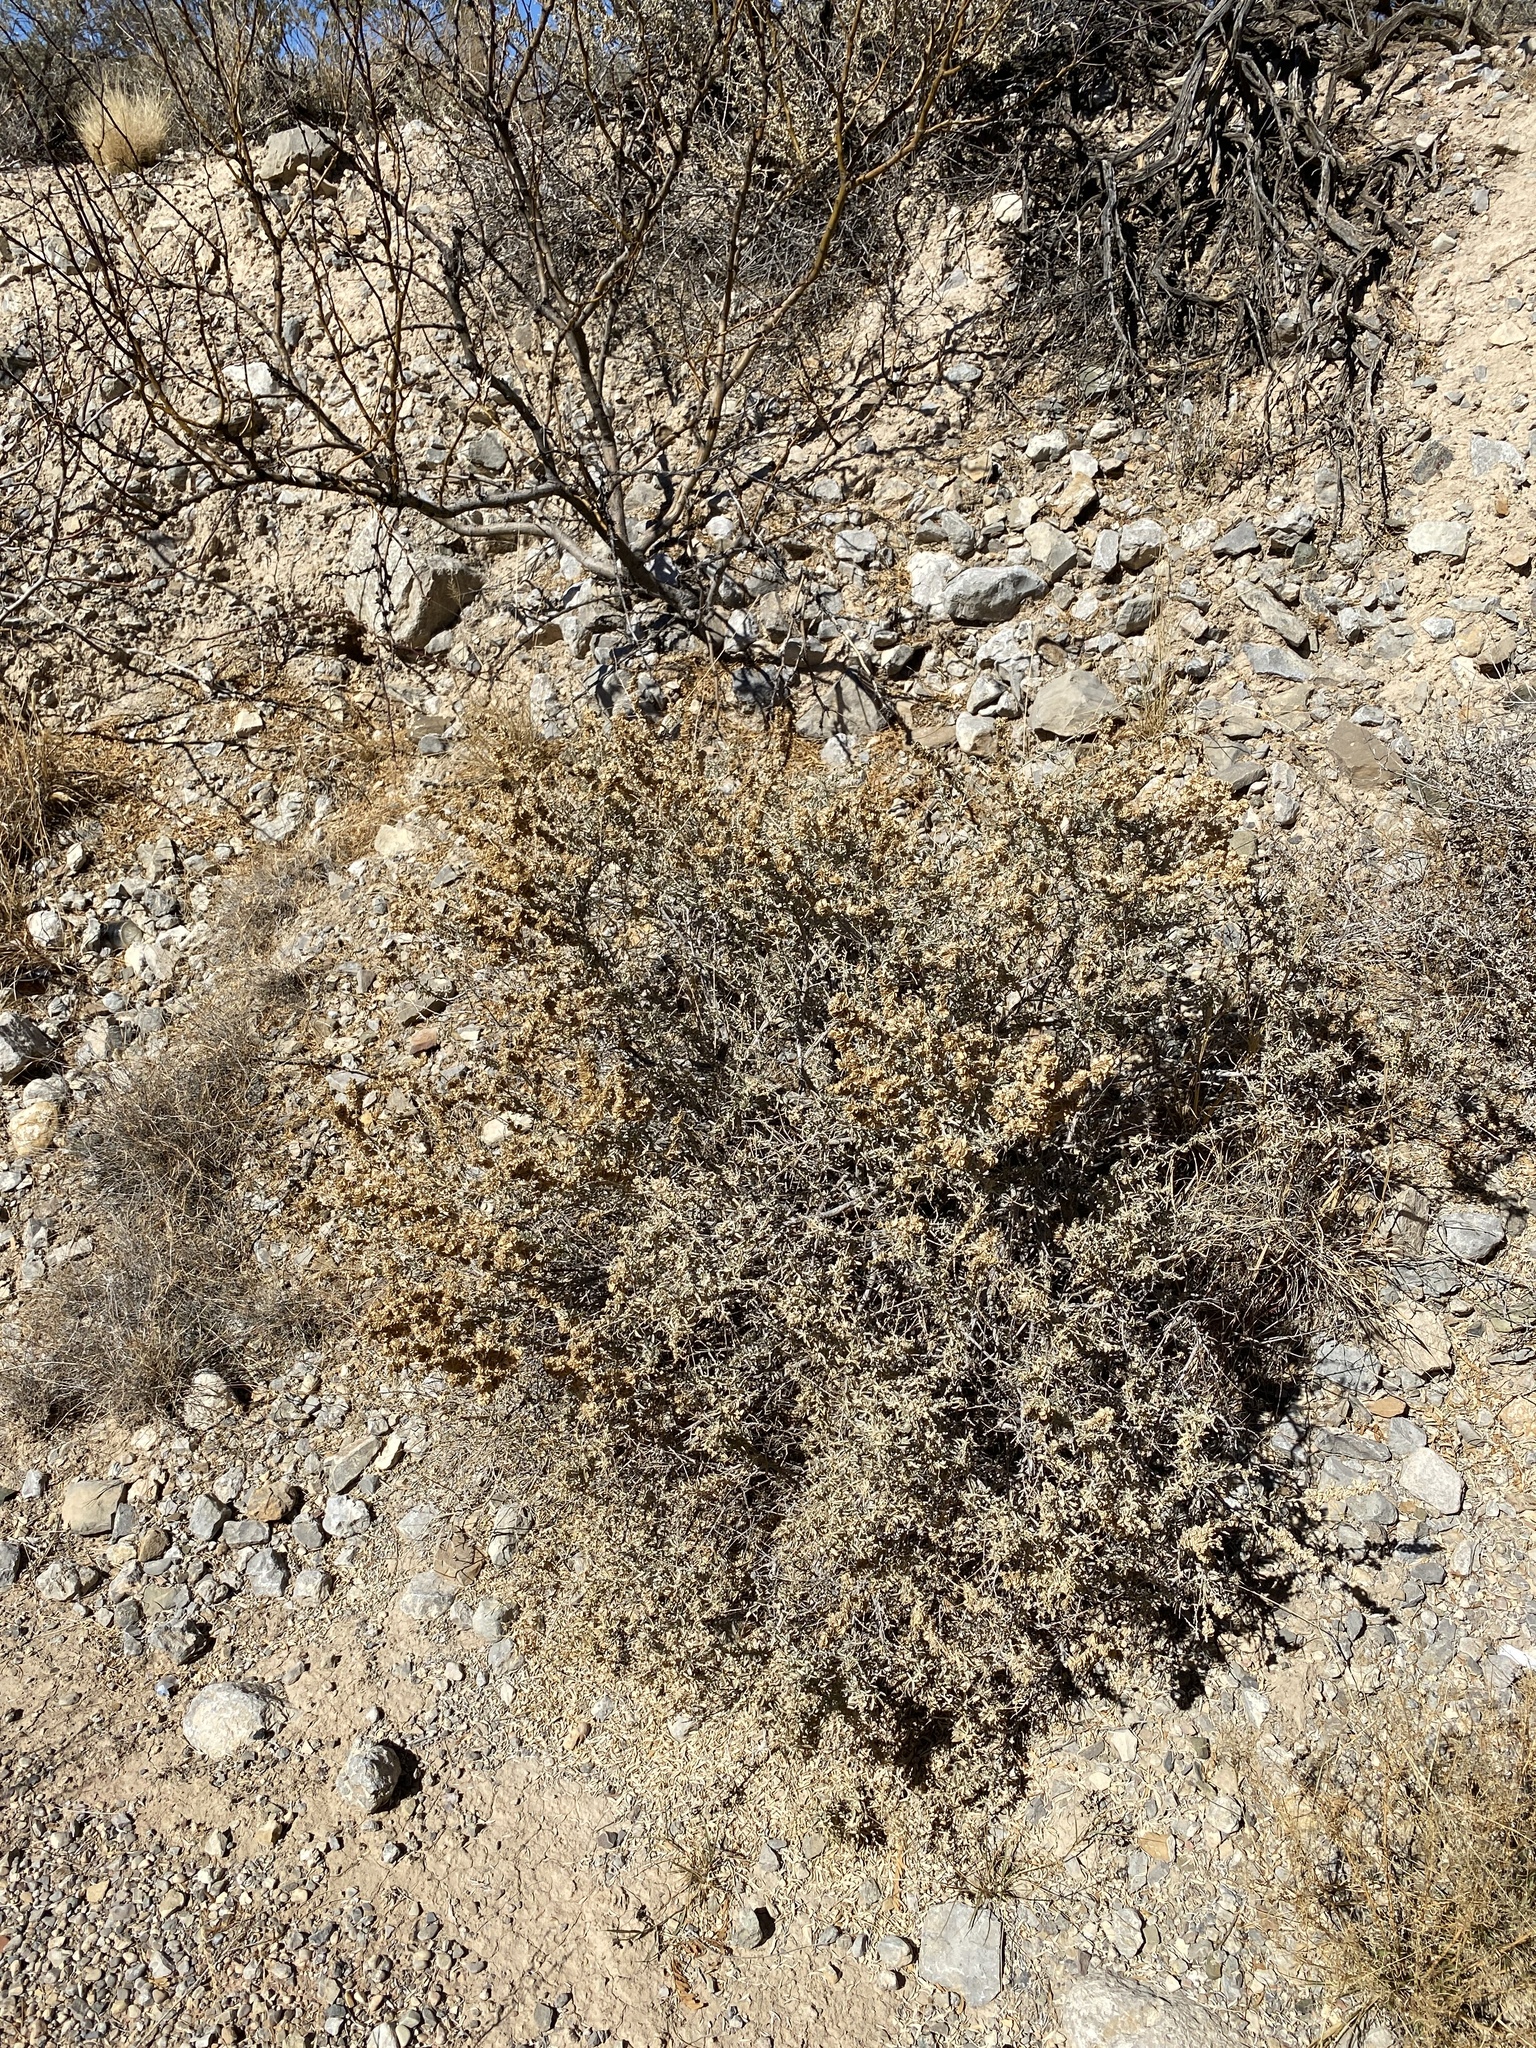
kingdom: Plantae
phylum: Tracheophyta
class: Magnoliopsida
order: Caryophyllales
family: Amaranthaceae
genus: Atriplex
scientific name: Atriplex canescens
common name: Four-wing saltbush
